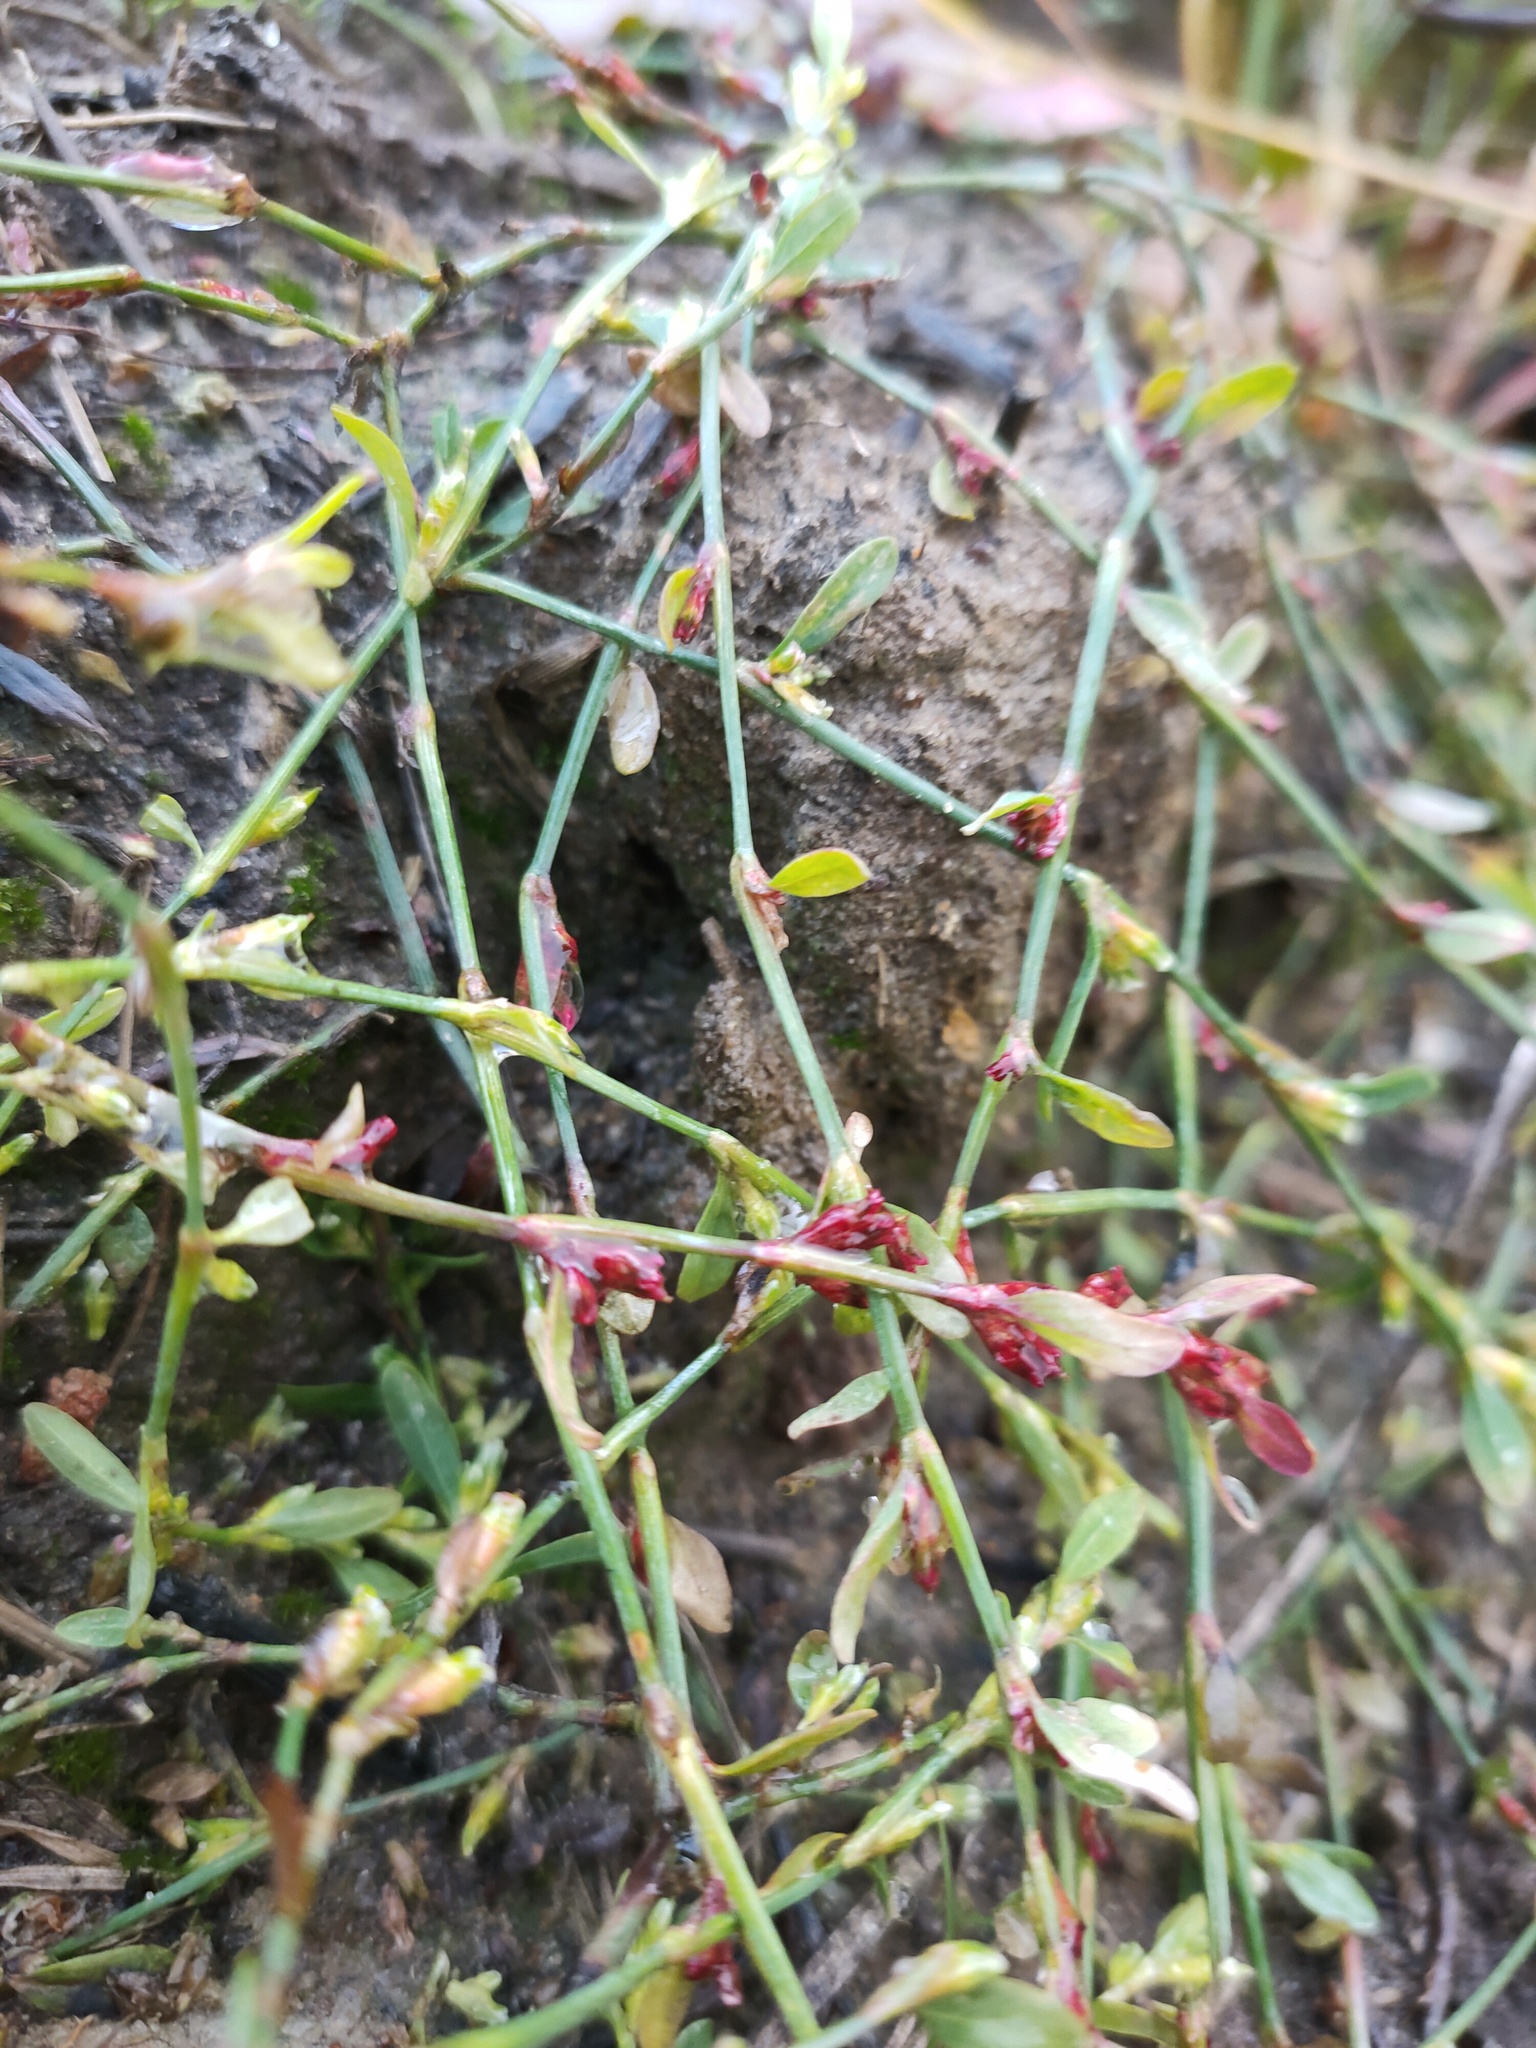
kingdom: Plantae
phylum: Tracheophyta
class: Magnoliopsida
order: Caryophyllales
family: Polygonaceae
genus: Polygonum
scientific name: Polygonum
